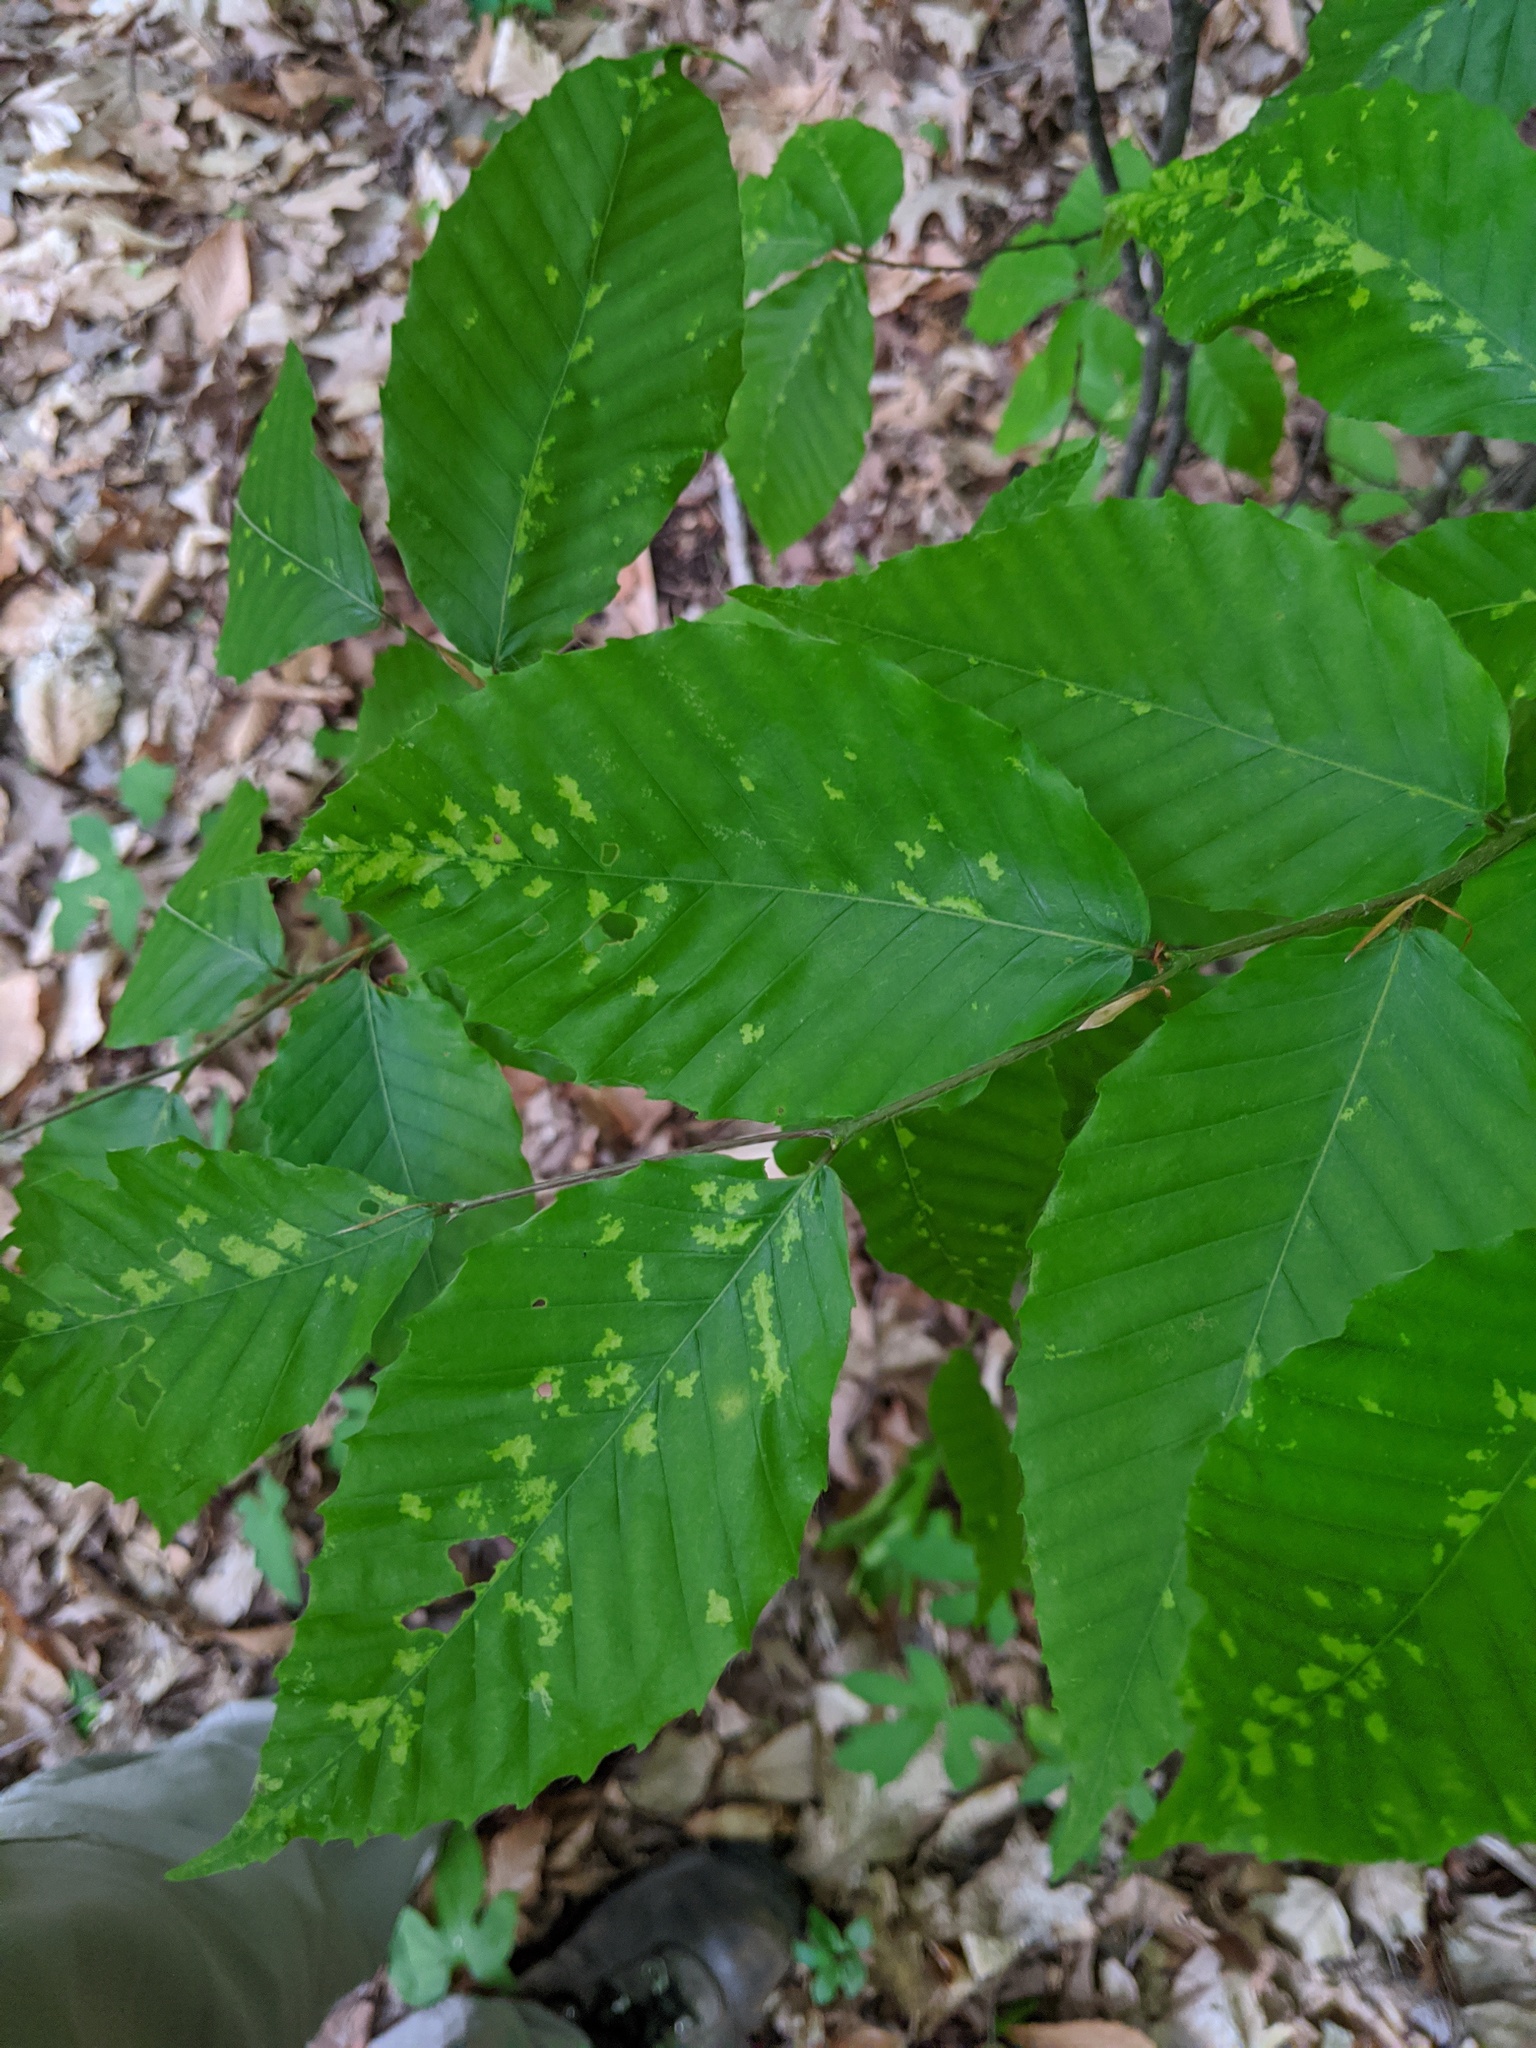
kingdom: Animalia
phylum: Arthropoda
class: Arachnida
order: Trombidiformes
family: Eriophyidae
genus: Acalitus
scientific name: Acalitus
